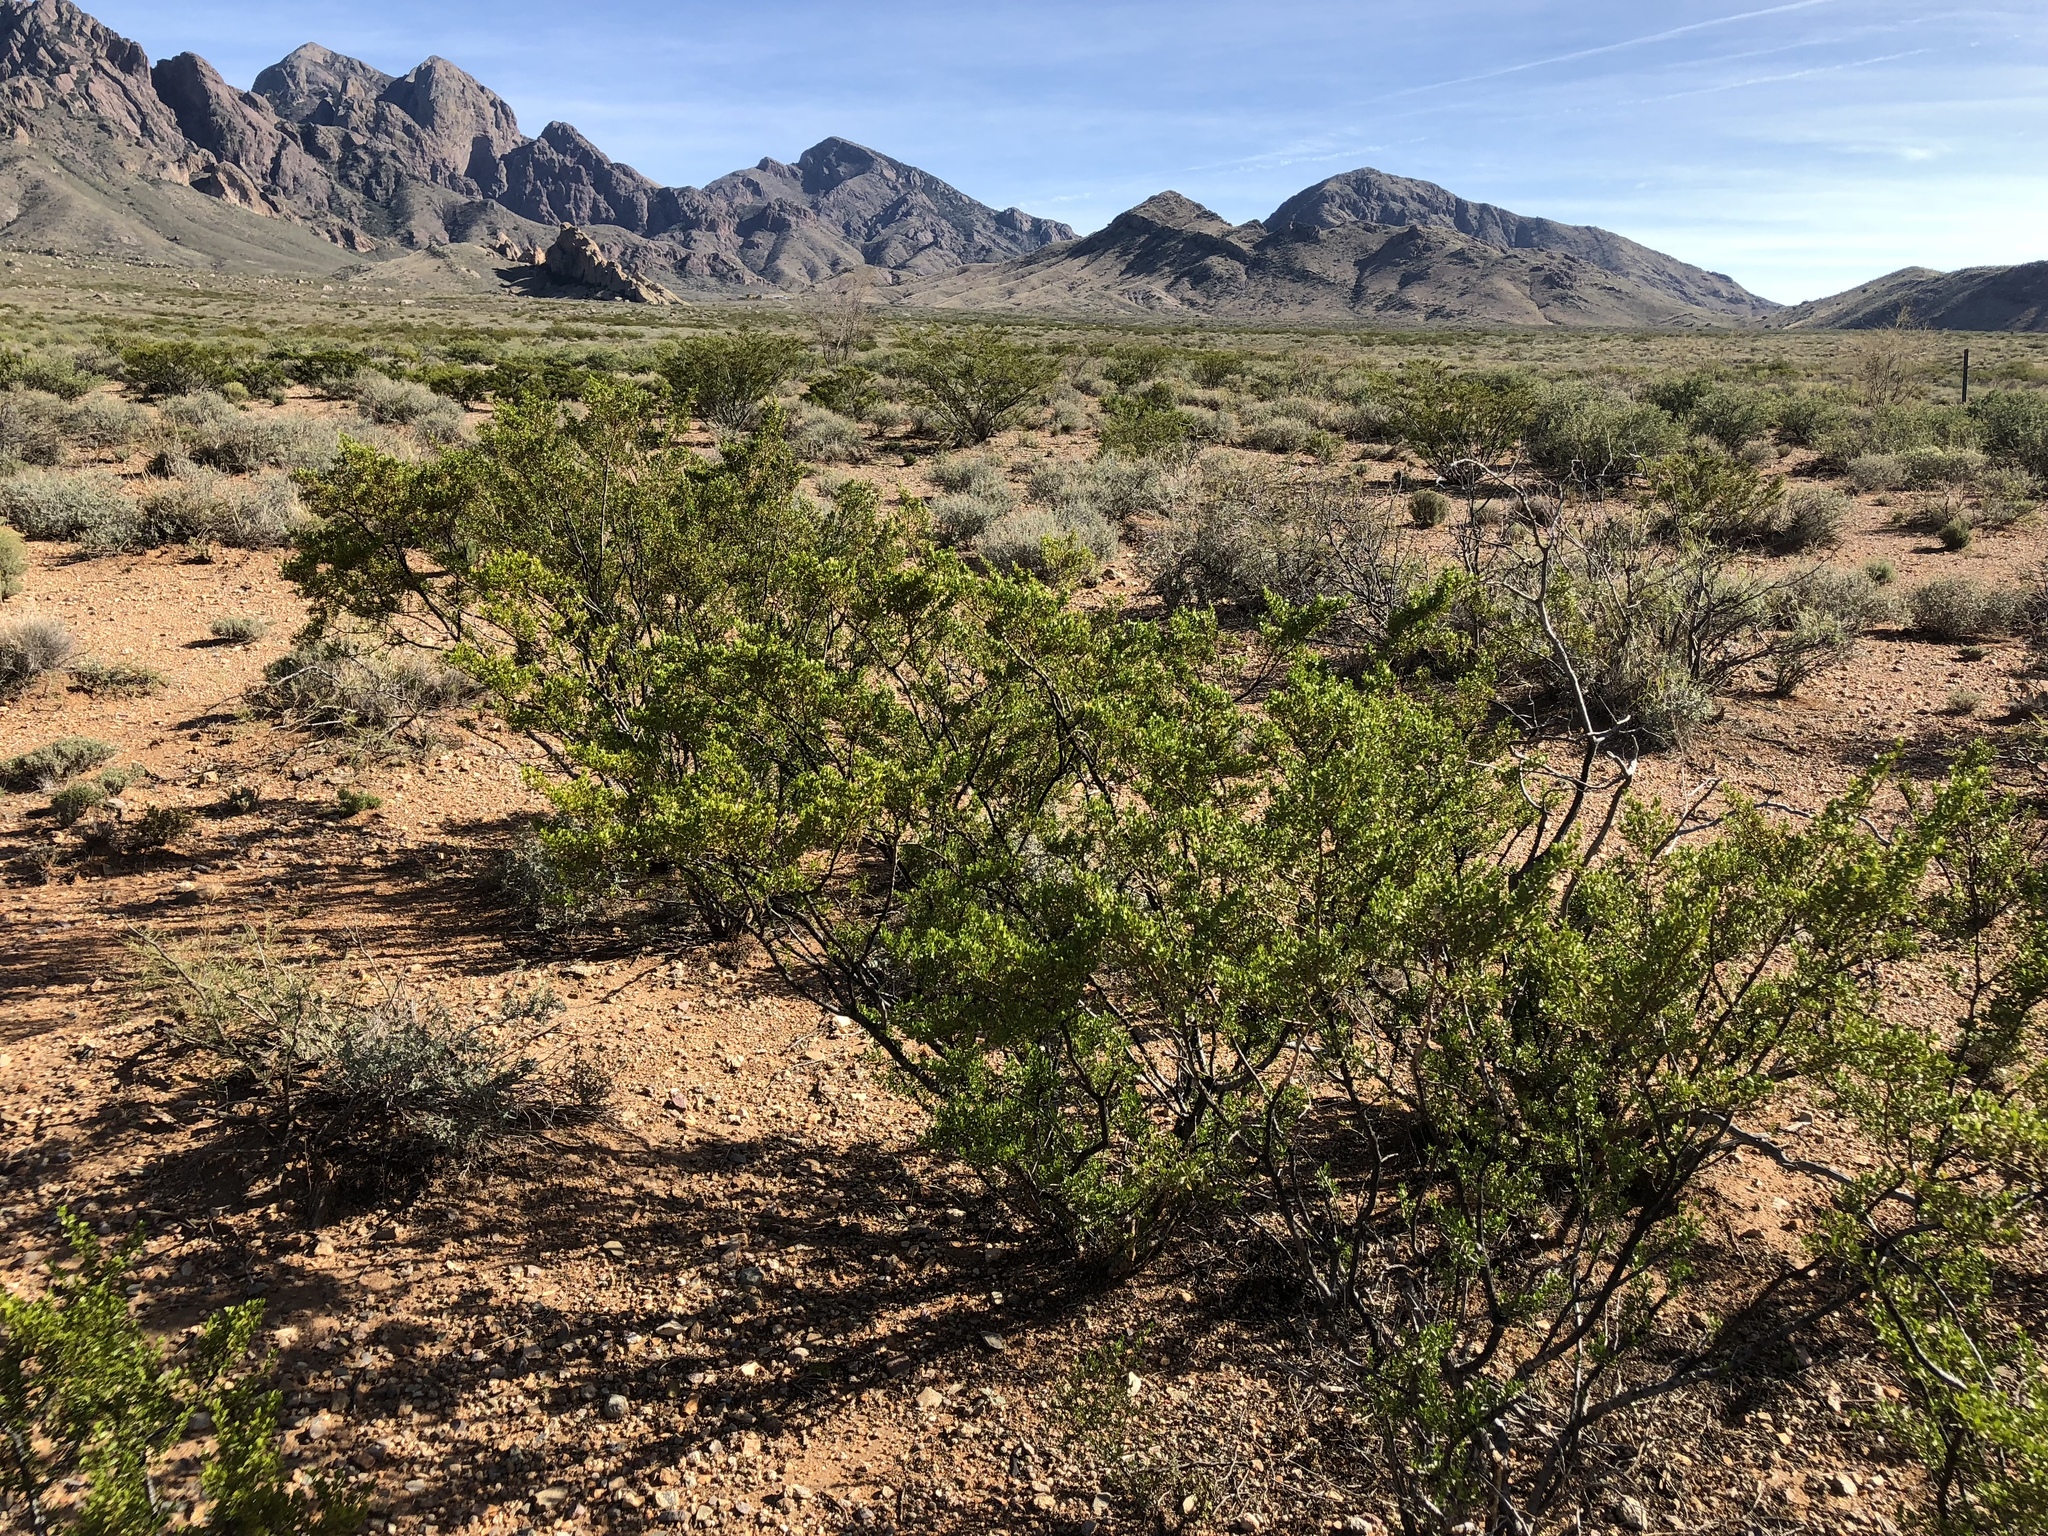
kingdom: Plantae
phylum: Tracheophyta
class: Magnoliopsida
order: Zygophyllales
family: Zygophyllaceae
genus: Larrea
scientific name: Larrea tridentata
